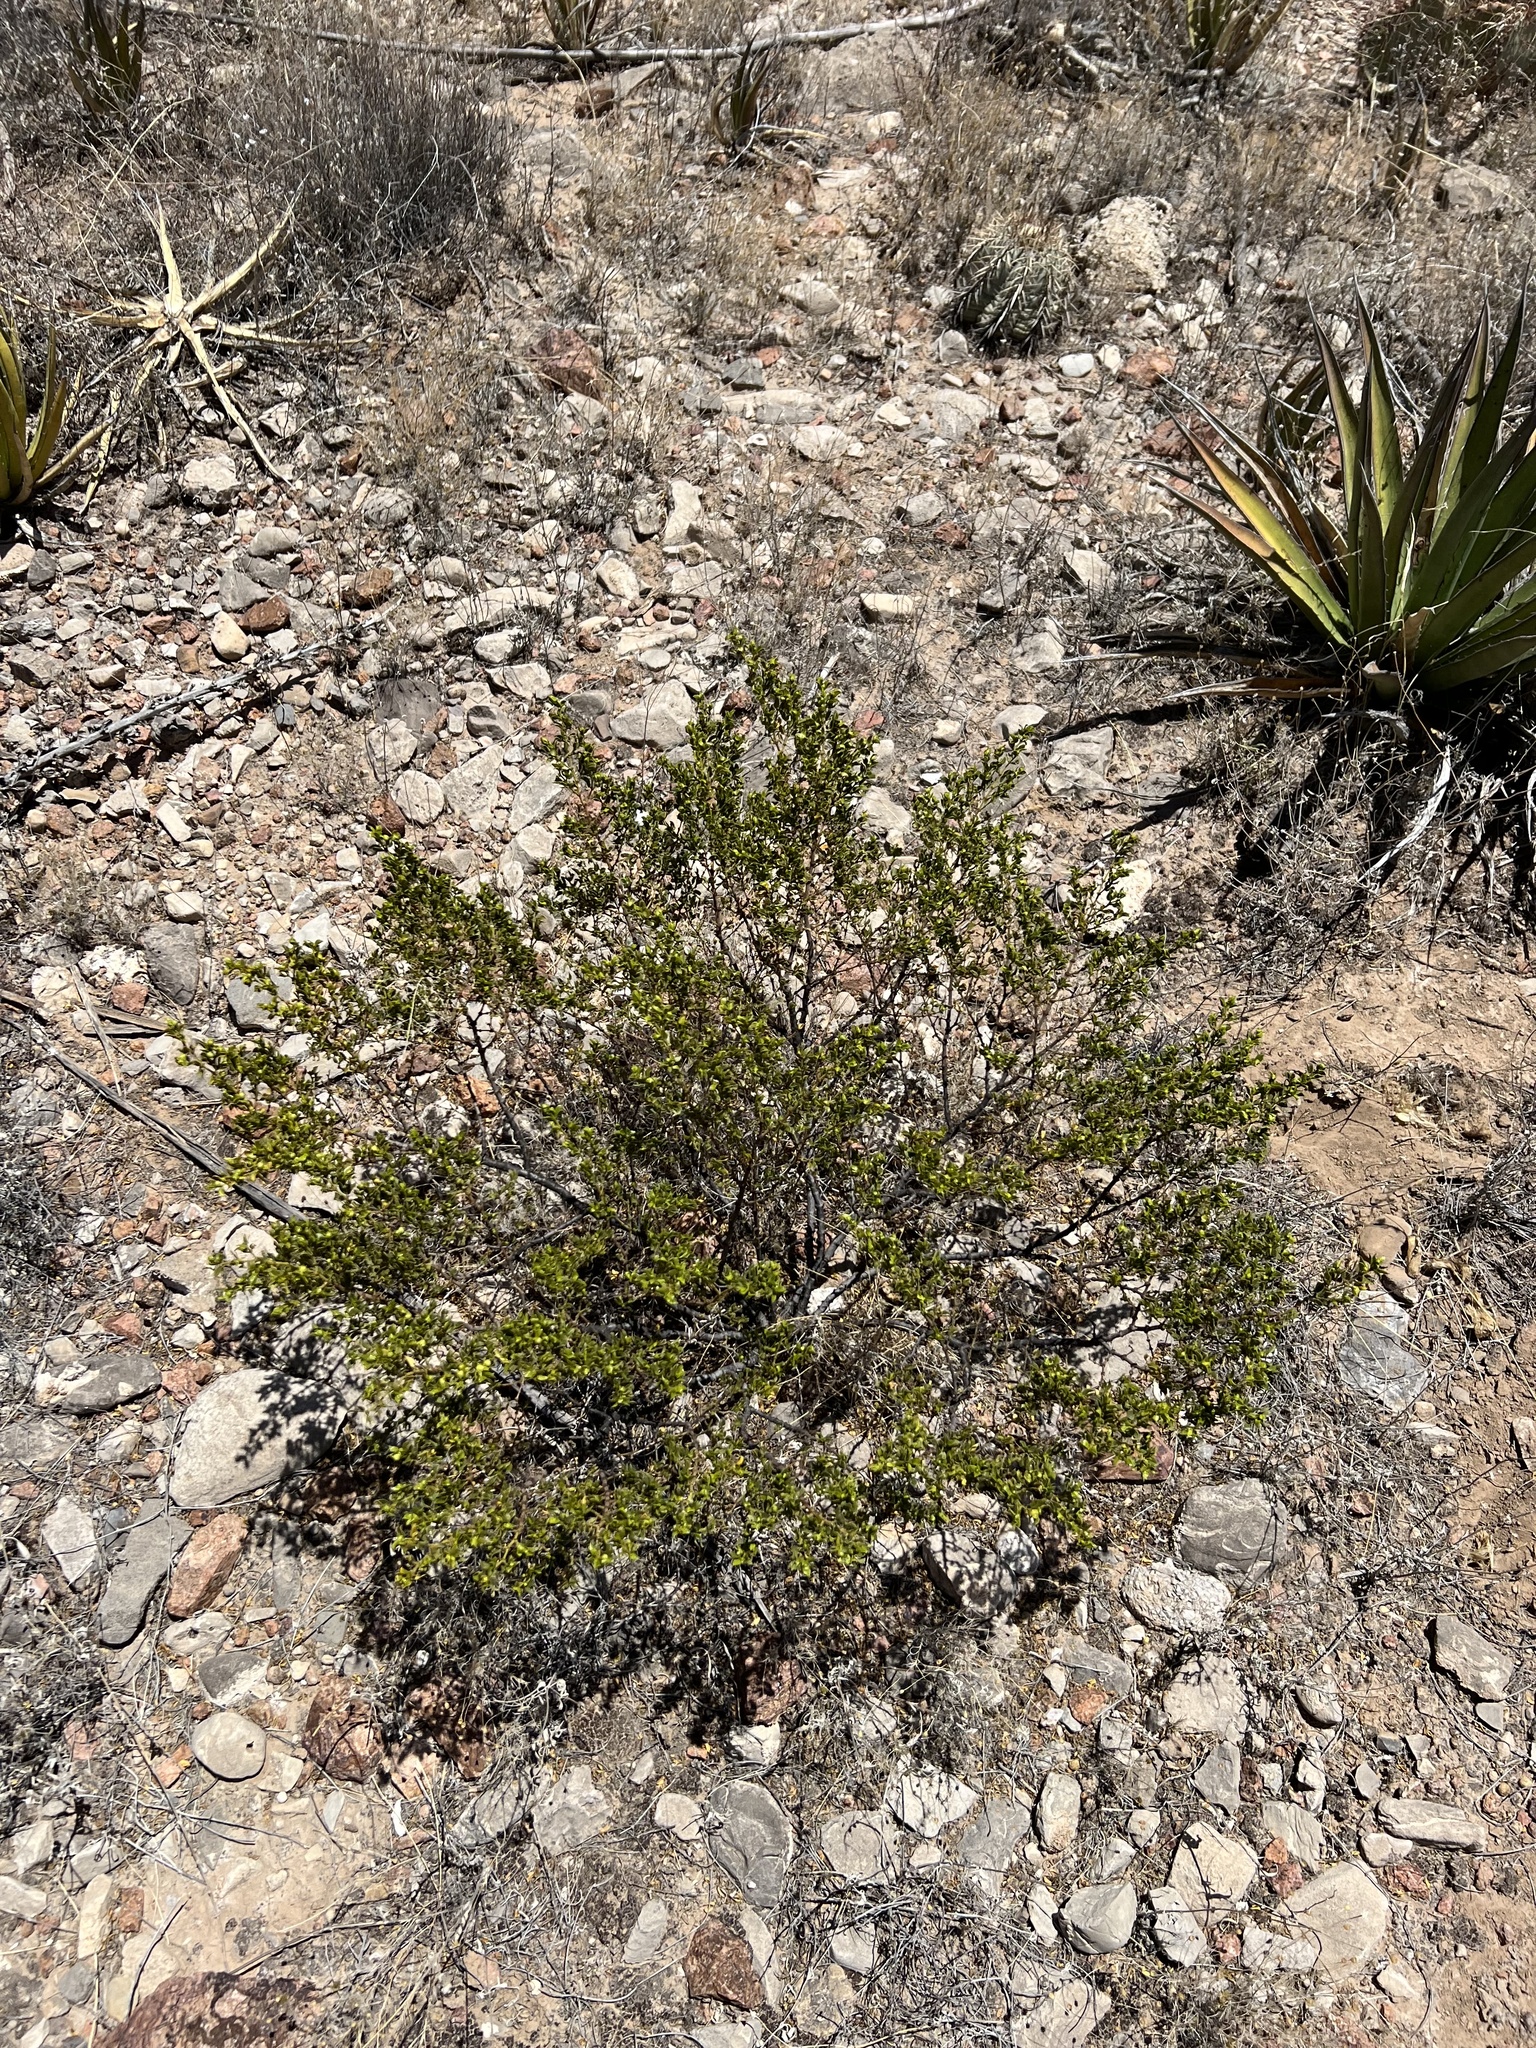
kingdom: Plantae
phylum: Tracheophyta
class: Magnoliopsida
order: Zygophyllales
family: Zygophyllaceae
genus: Larrea
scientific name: Larrea tridentata
